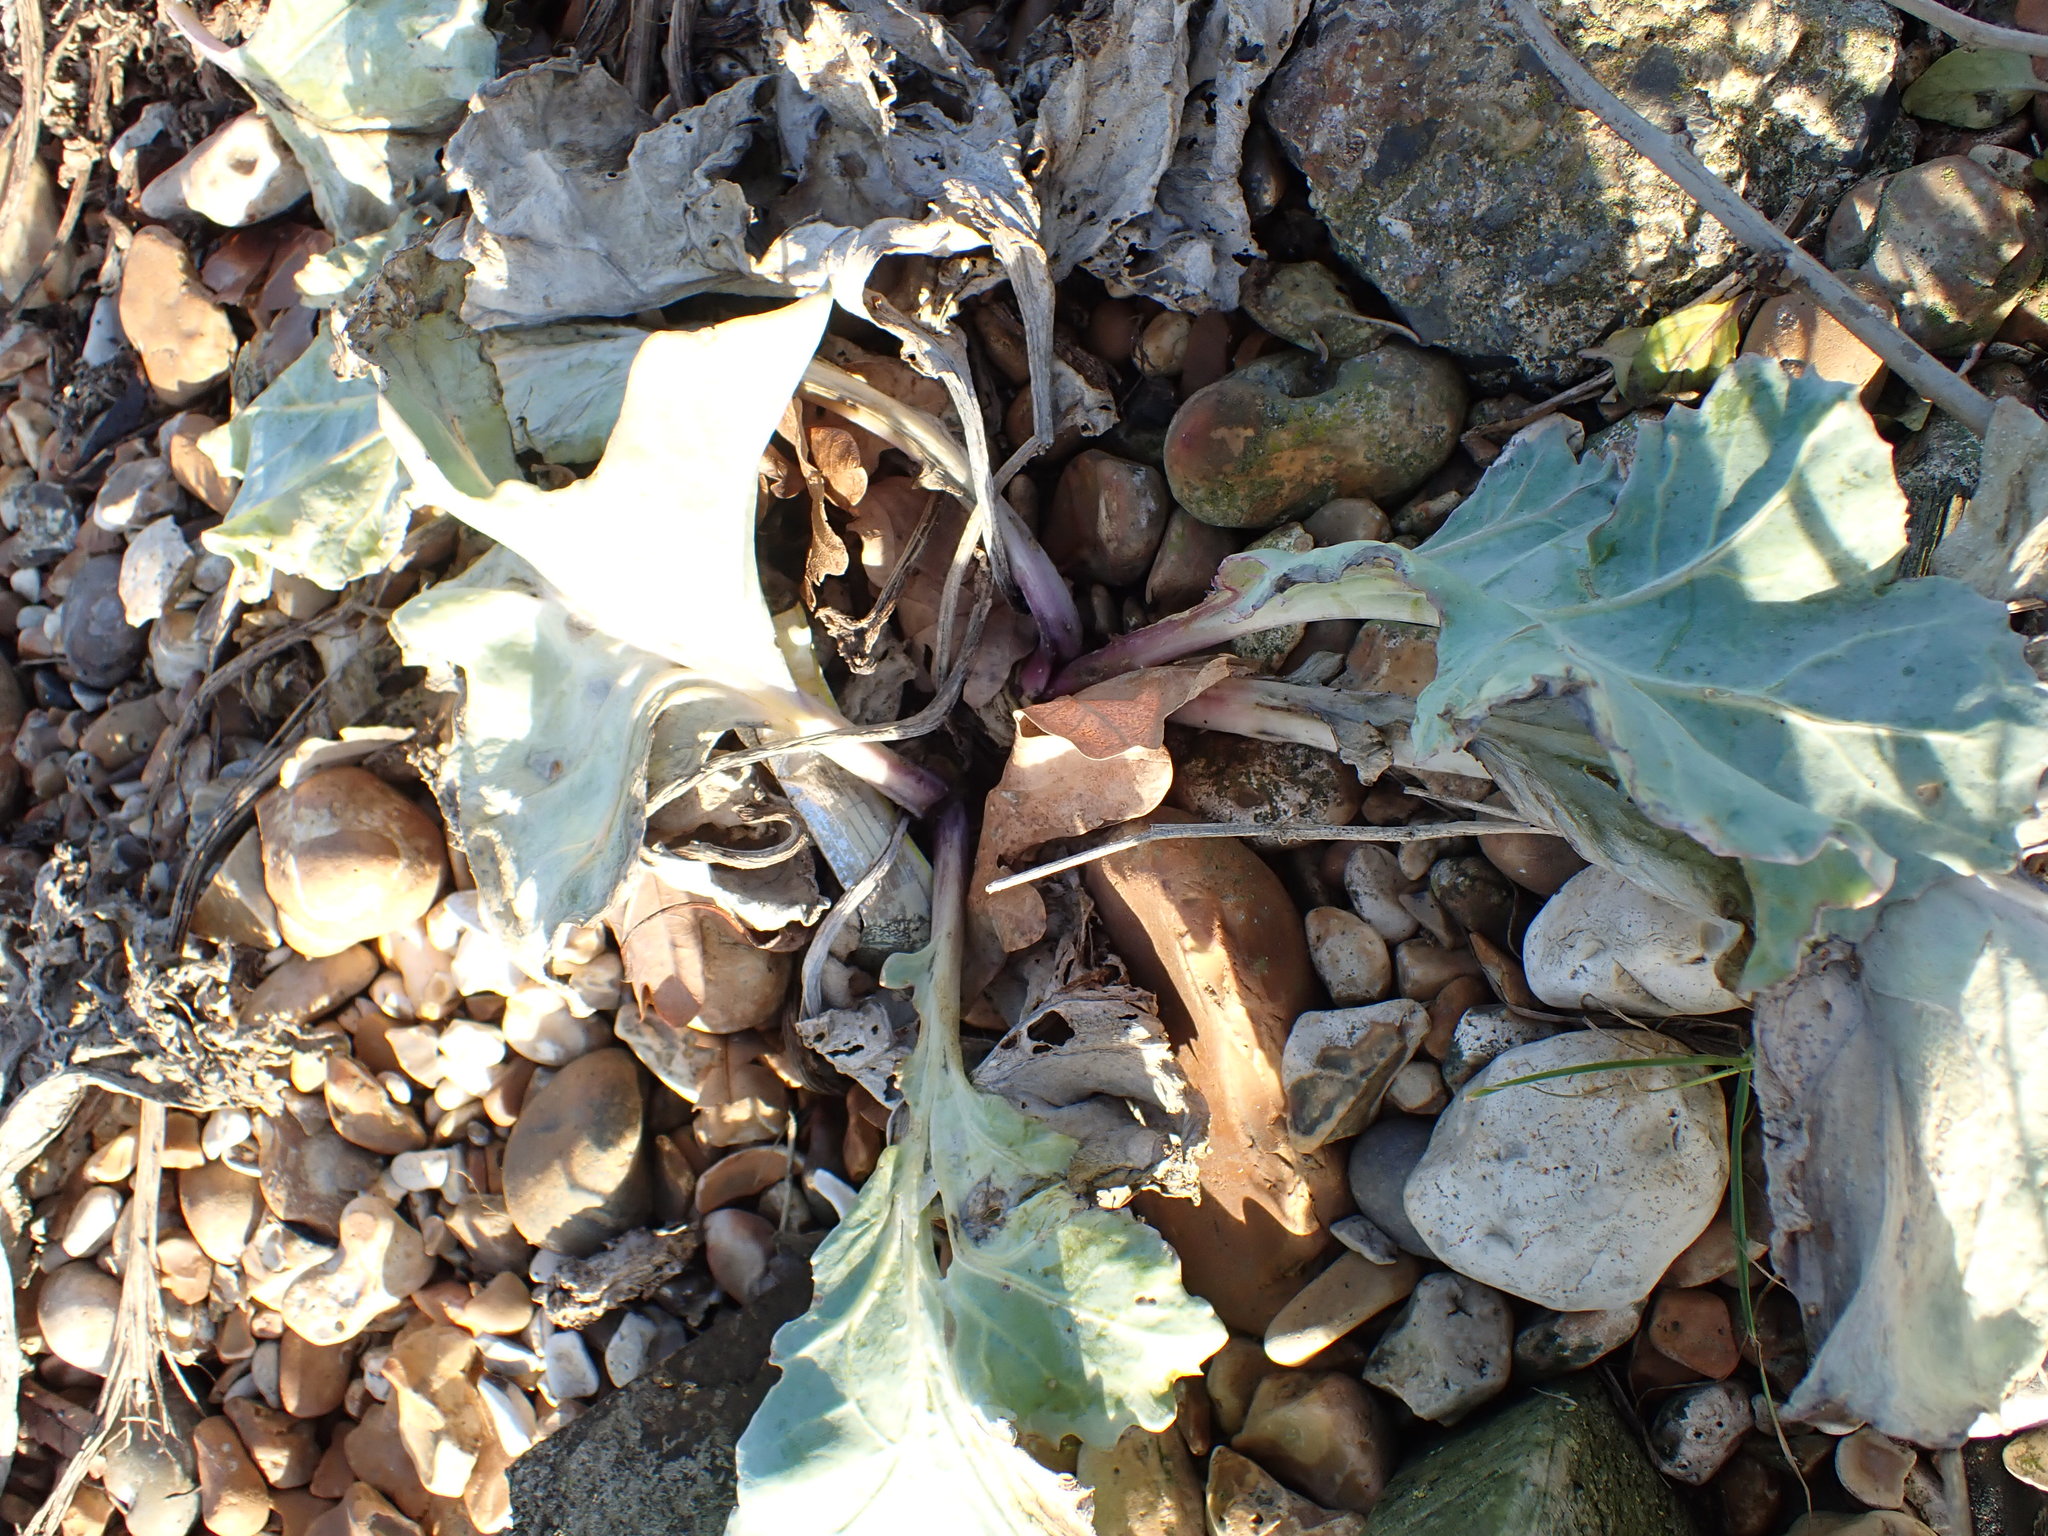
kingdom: Plantae
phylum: Tracheophyta
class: Magnoliopsida
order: Brassicales
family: Brassicaceae
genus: Crambe
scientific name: Crambe maritima
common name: Sea-kale
